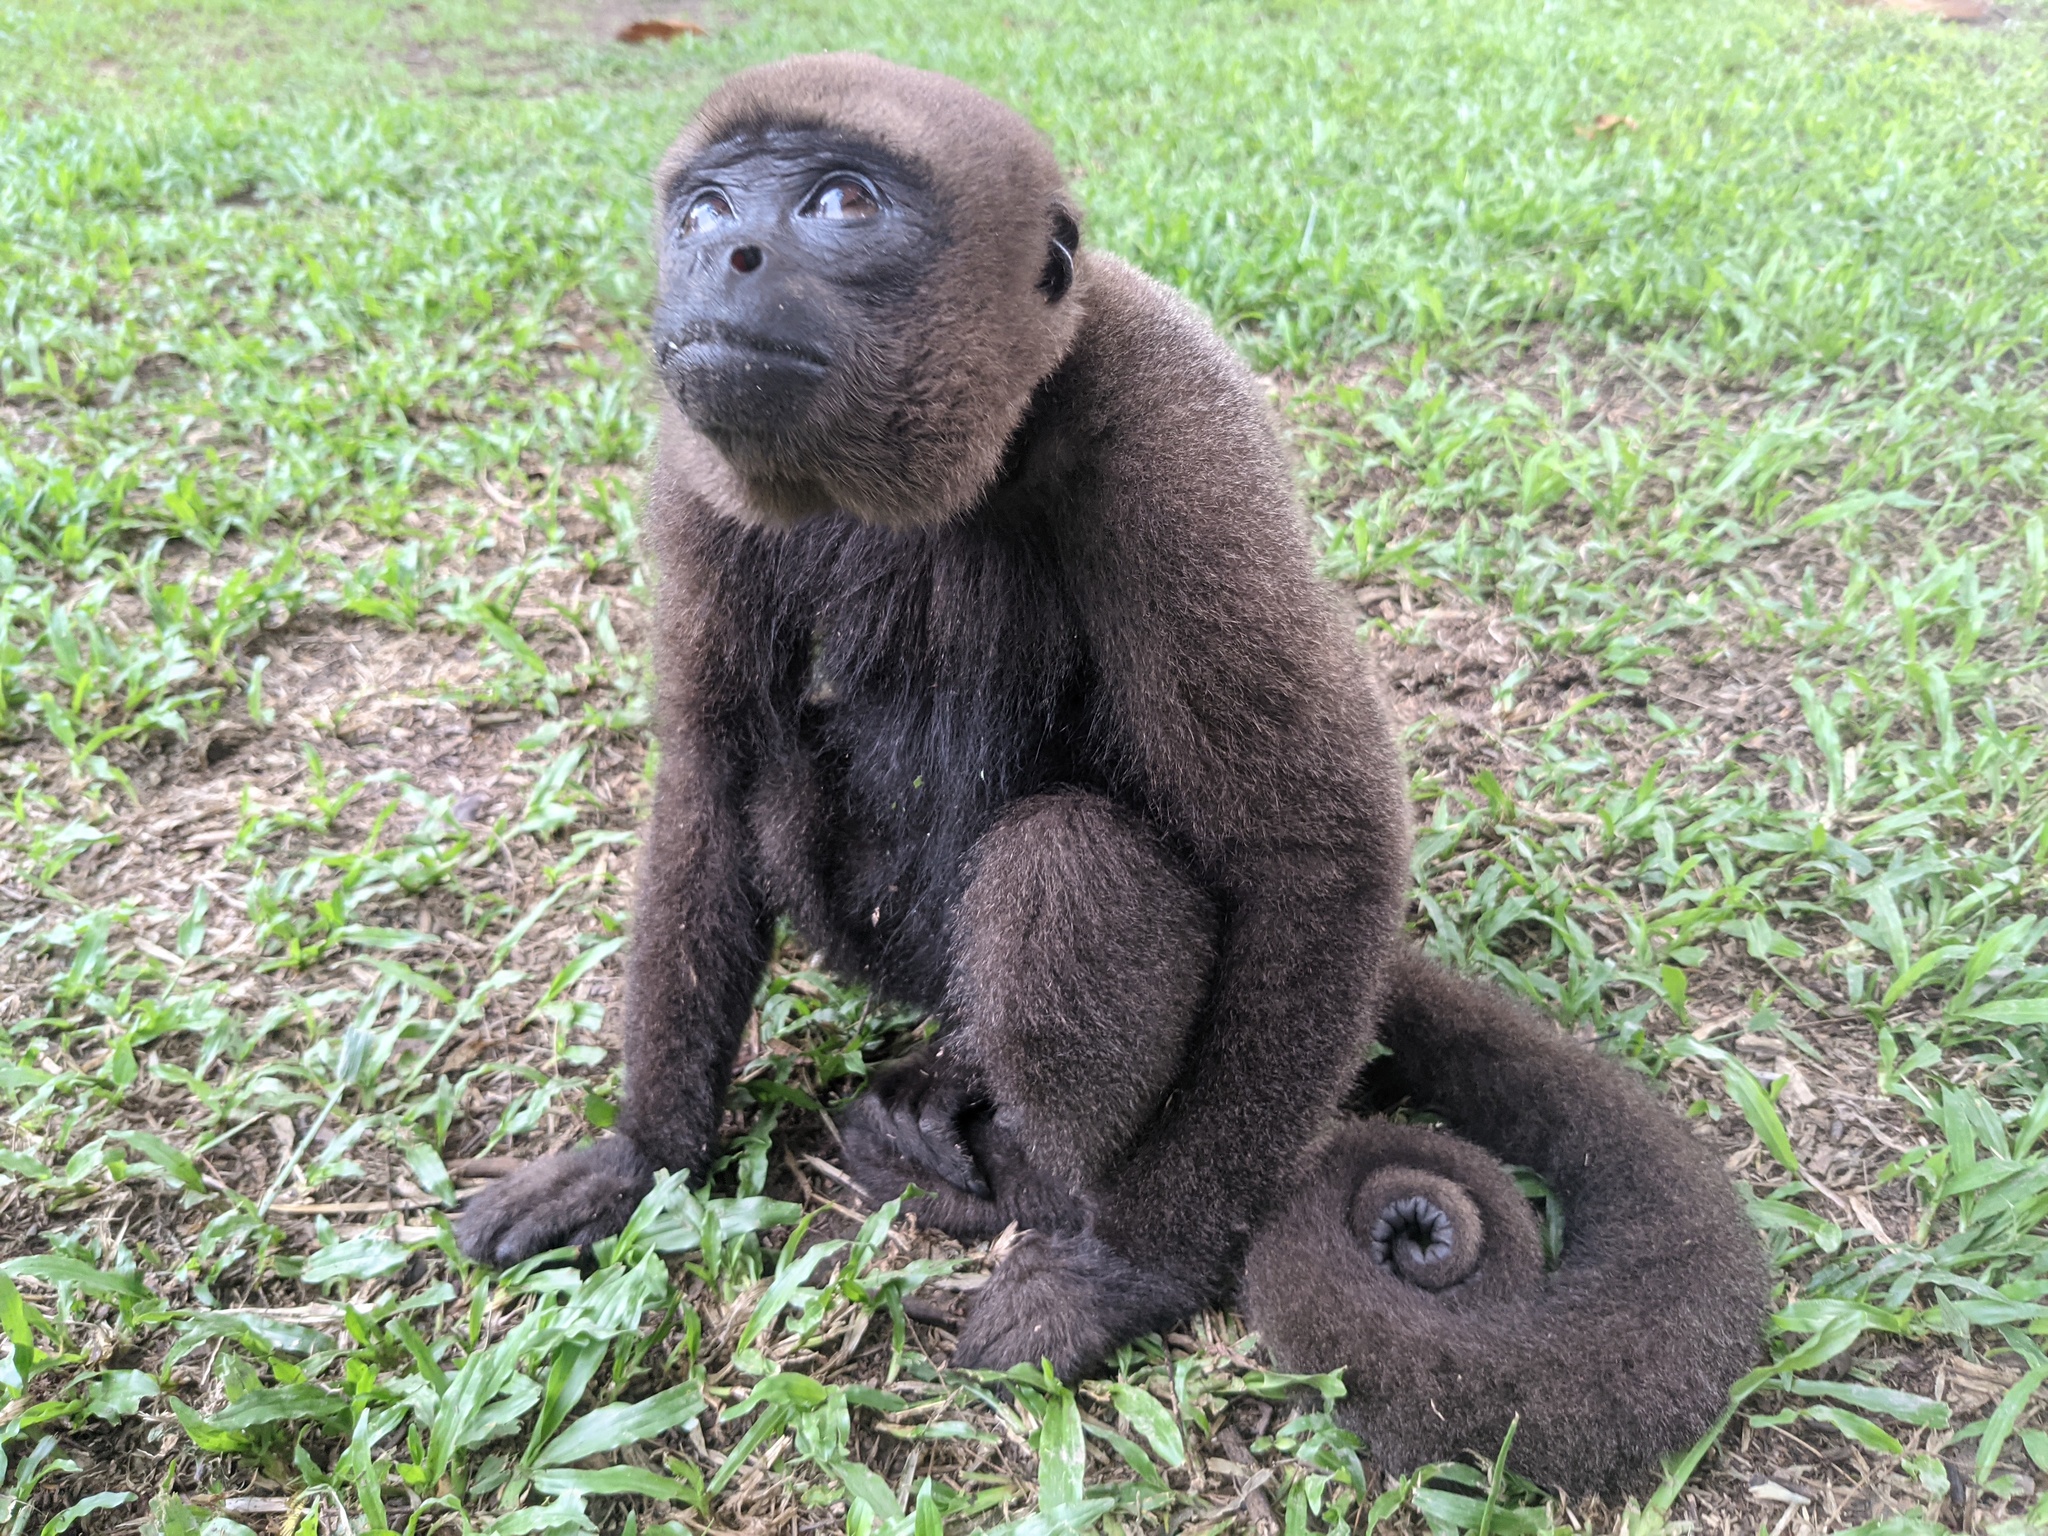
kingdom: Animalia
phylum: Chordata
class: Mammalia
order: Primates
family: Atelidae
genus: Lagothrix
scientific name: Lagothrix lagothricha
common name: Brown woolly monkey
